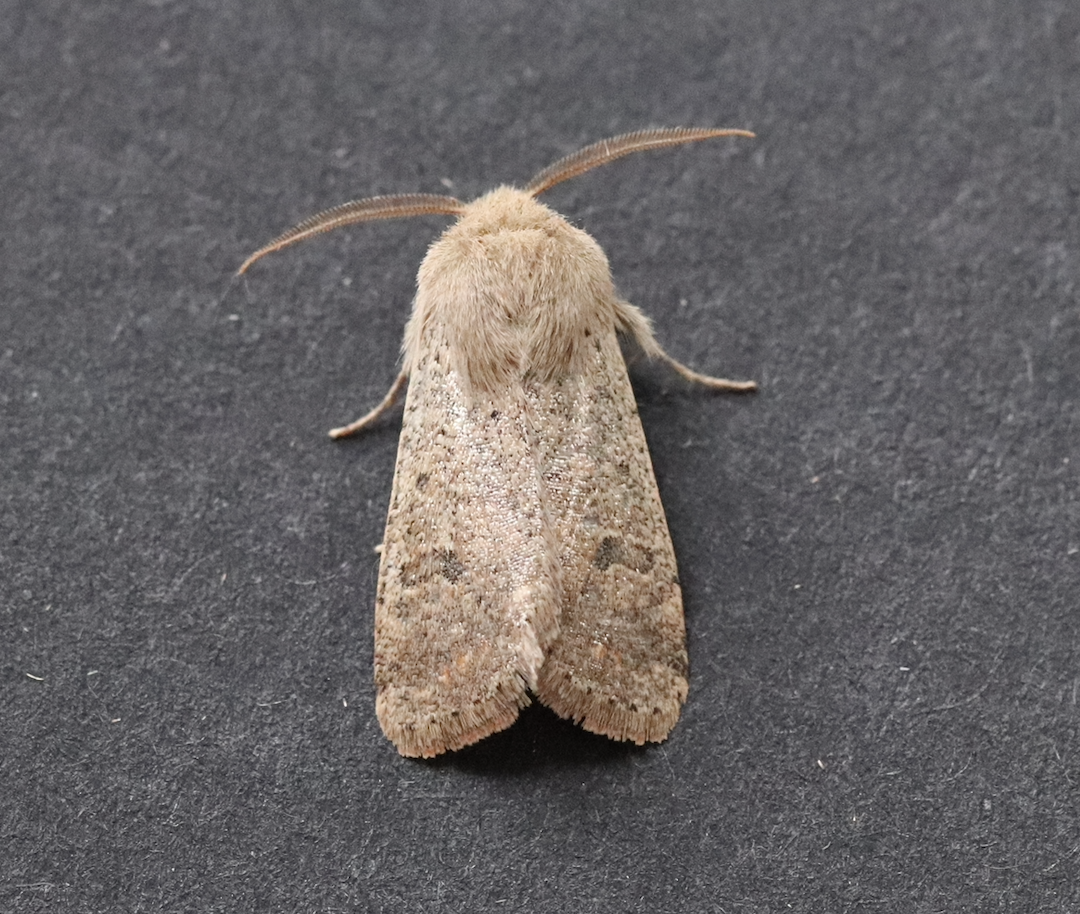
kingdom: Animalia
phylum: Arthropoda
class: Insecta
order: Lepidoptera
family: Noctuidae
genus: Orthosia
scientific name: Orthosia cruda
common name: Small quaker
